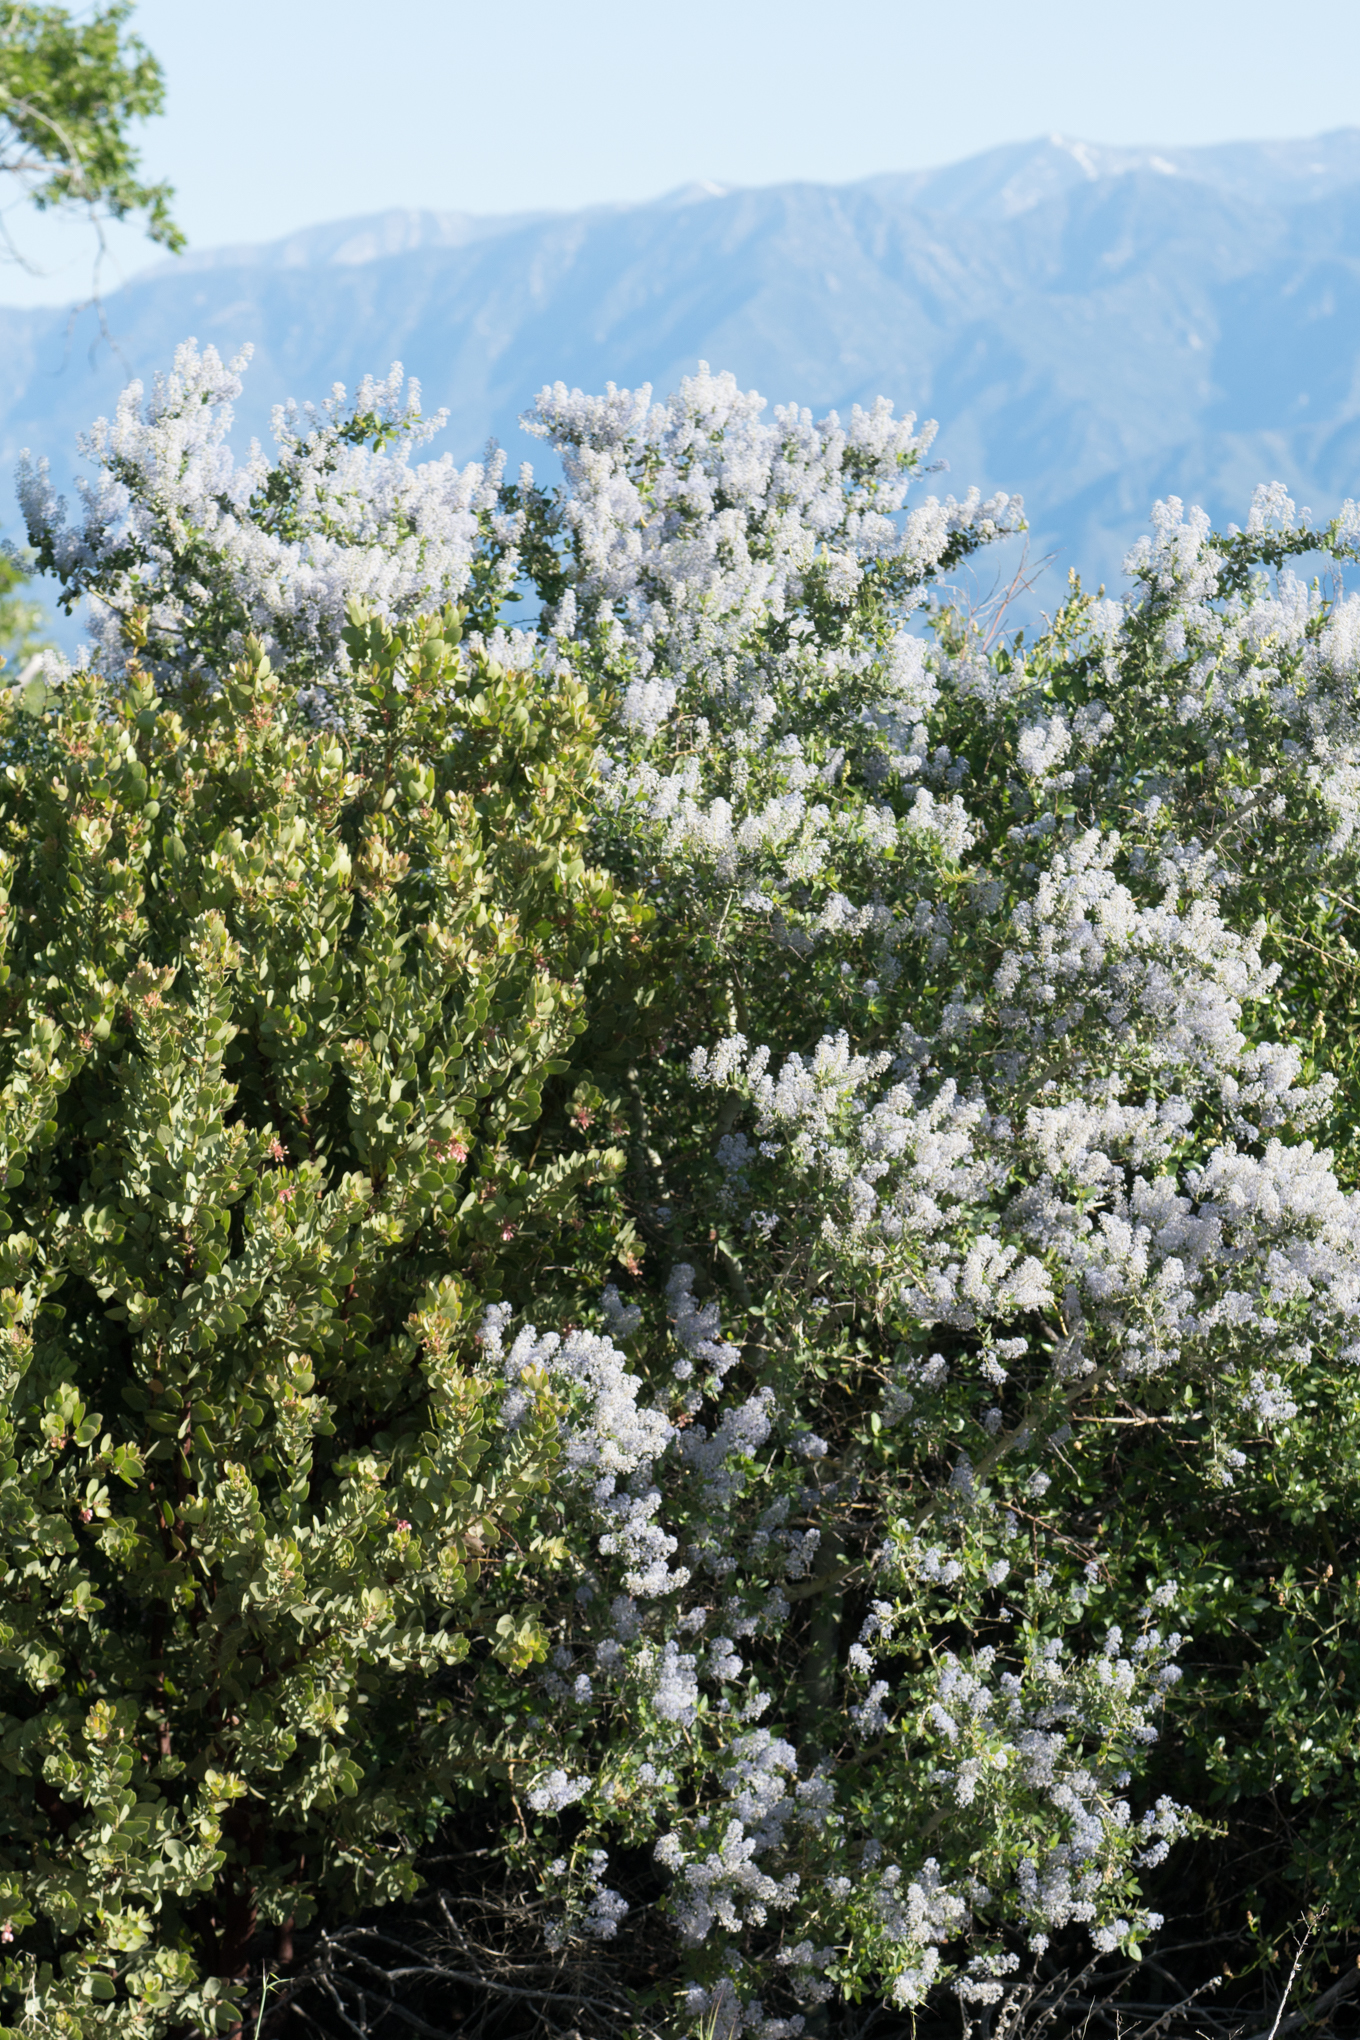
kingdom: Plantae
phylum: Tracheophyta
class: Magnoliopsida
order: Rosales
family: Rhamnaceae
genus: Ceanothus
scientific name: Ceanothus leucodermis
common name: Chaparral whitethorn
